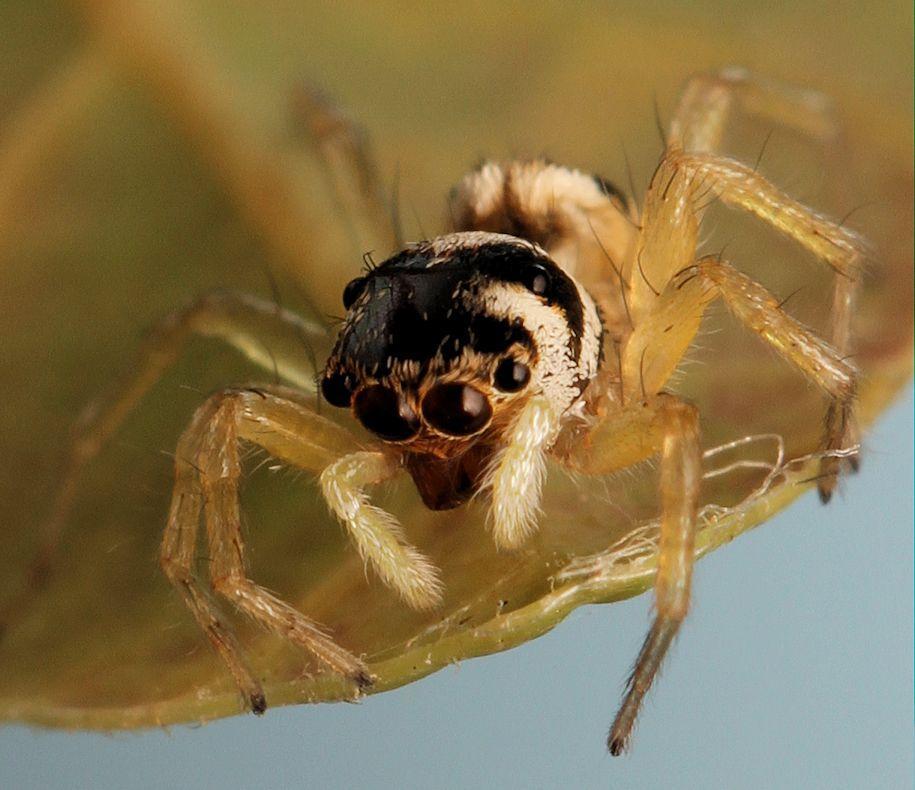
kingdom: Animalia
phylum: Arthropoda
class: Arachnida
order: Araneae
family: Salticidae
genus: Phintella
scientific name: Phintella aequipes
